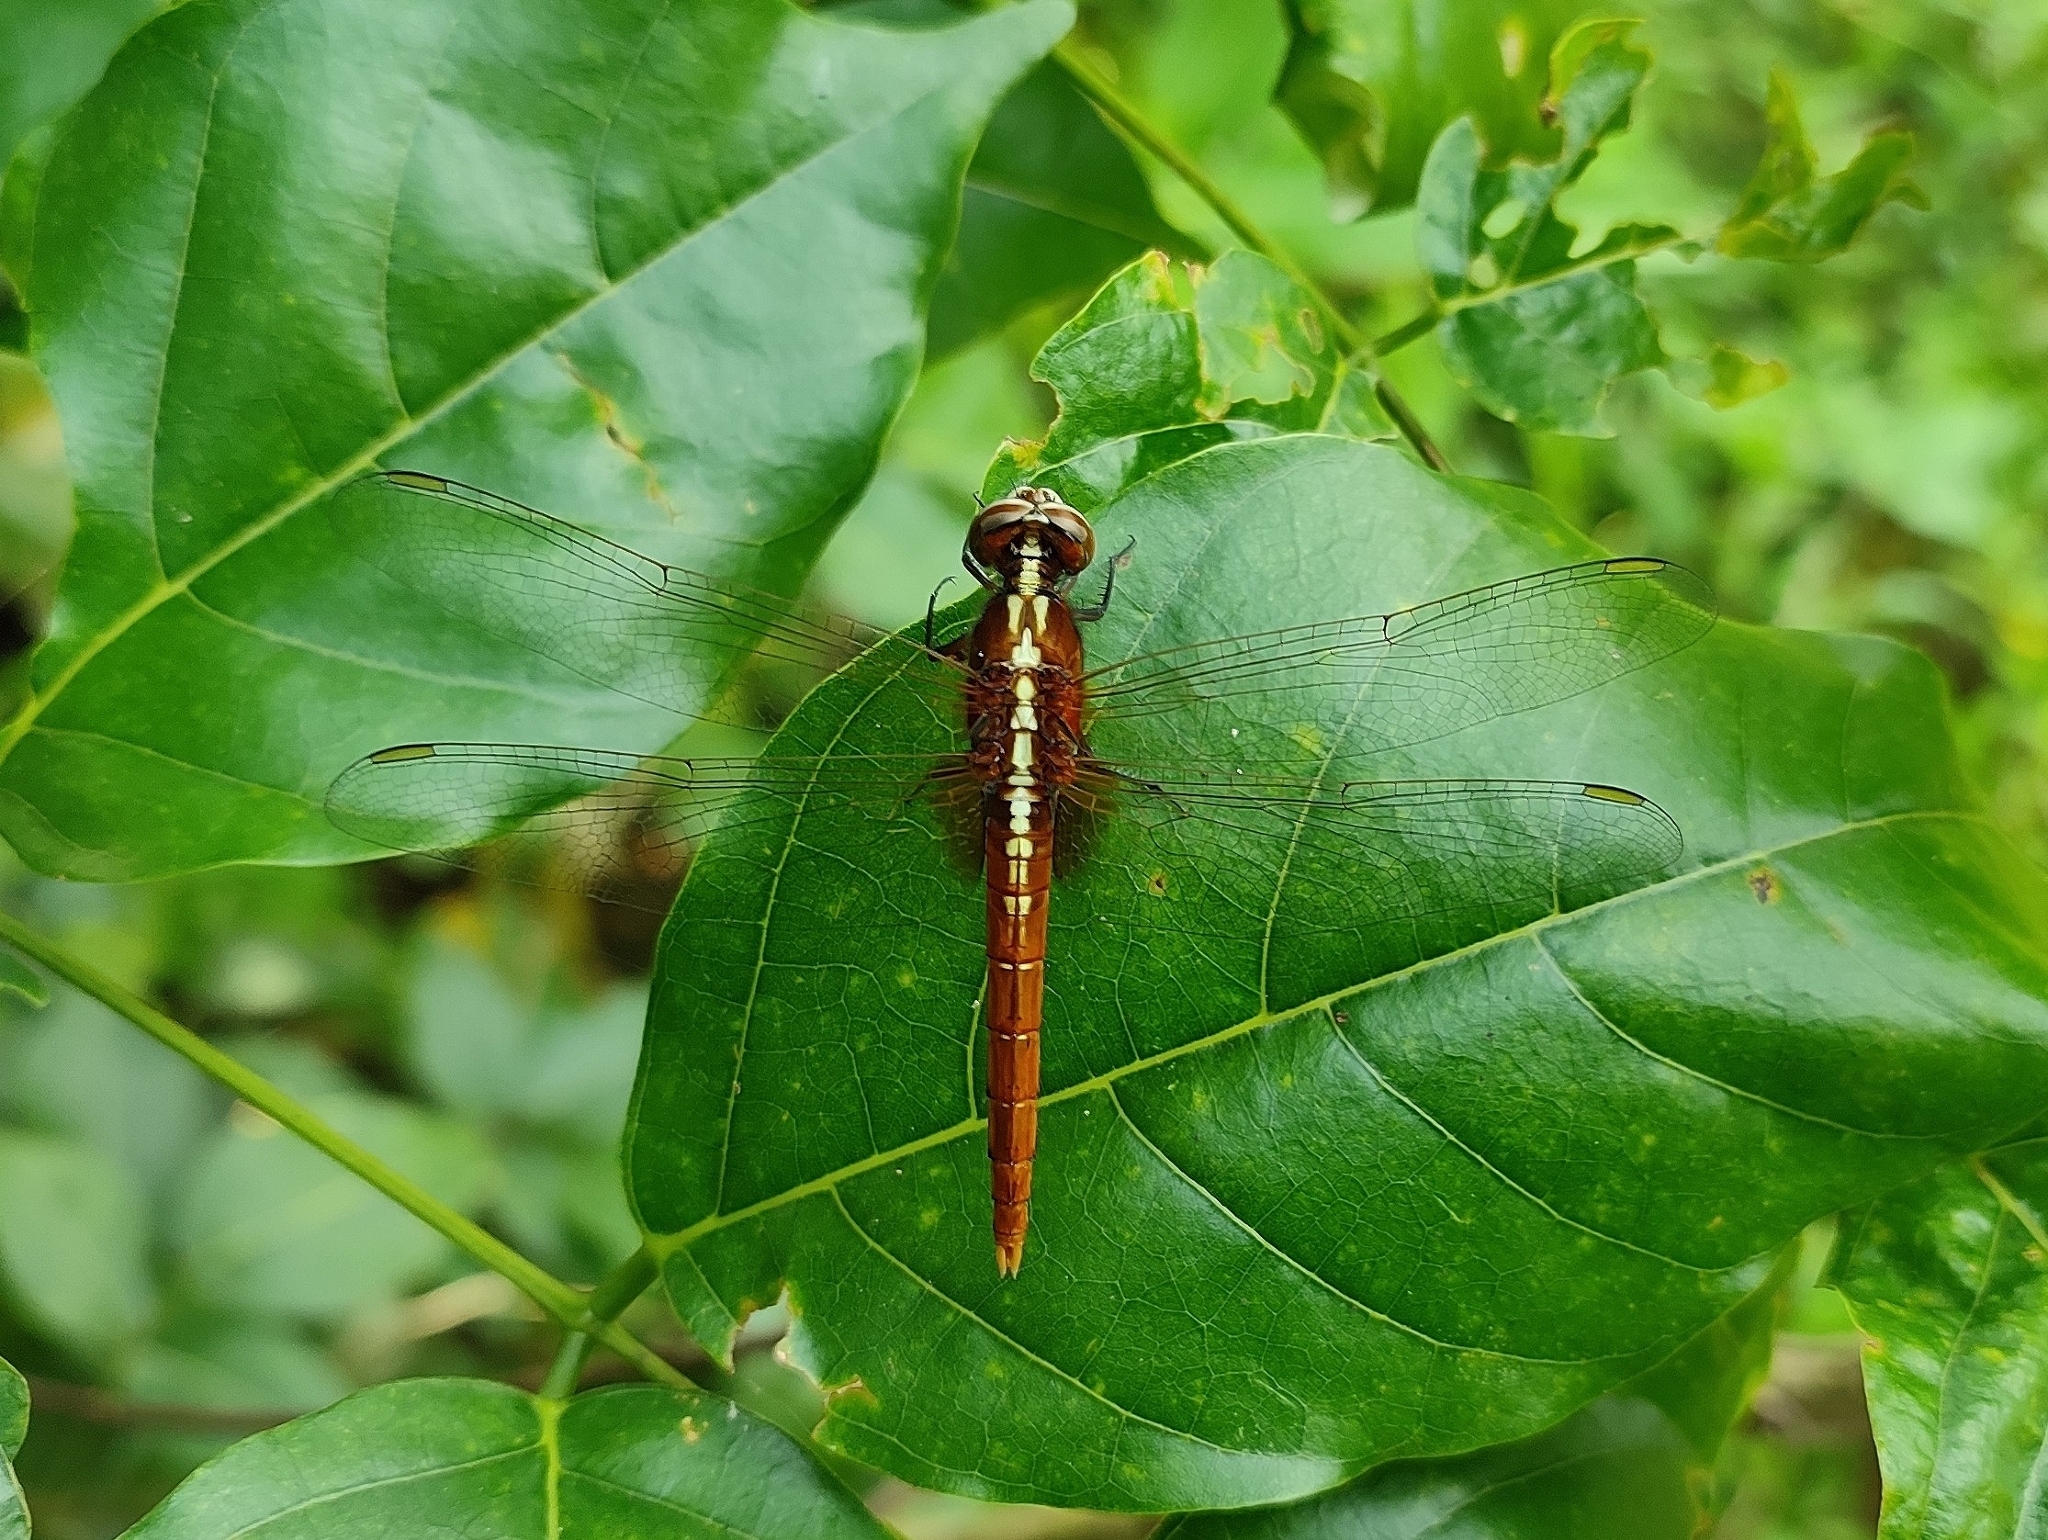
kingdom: Animalia
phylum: Arthropoda
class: Insecta
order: Odonata
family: Libellulidae
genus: Rhodothemis
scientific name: Rhodothemis rufa
